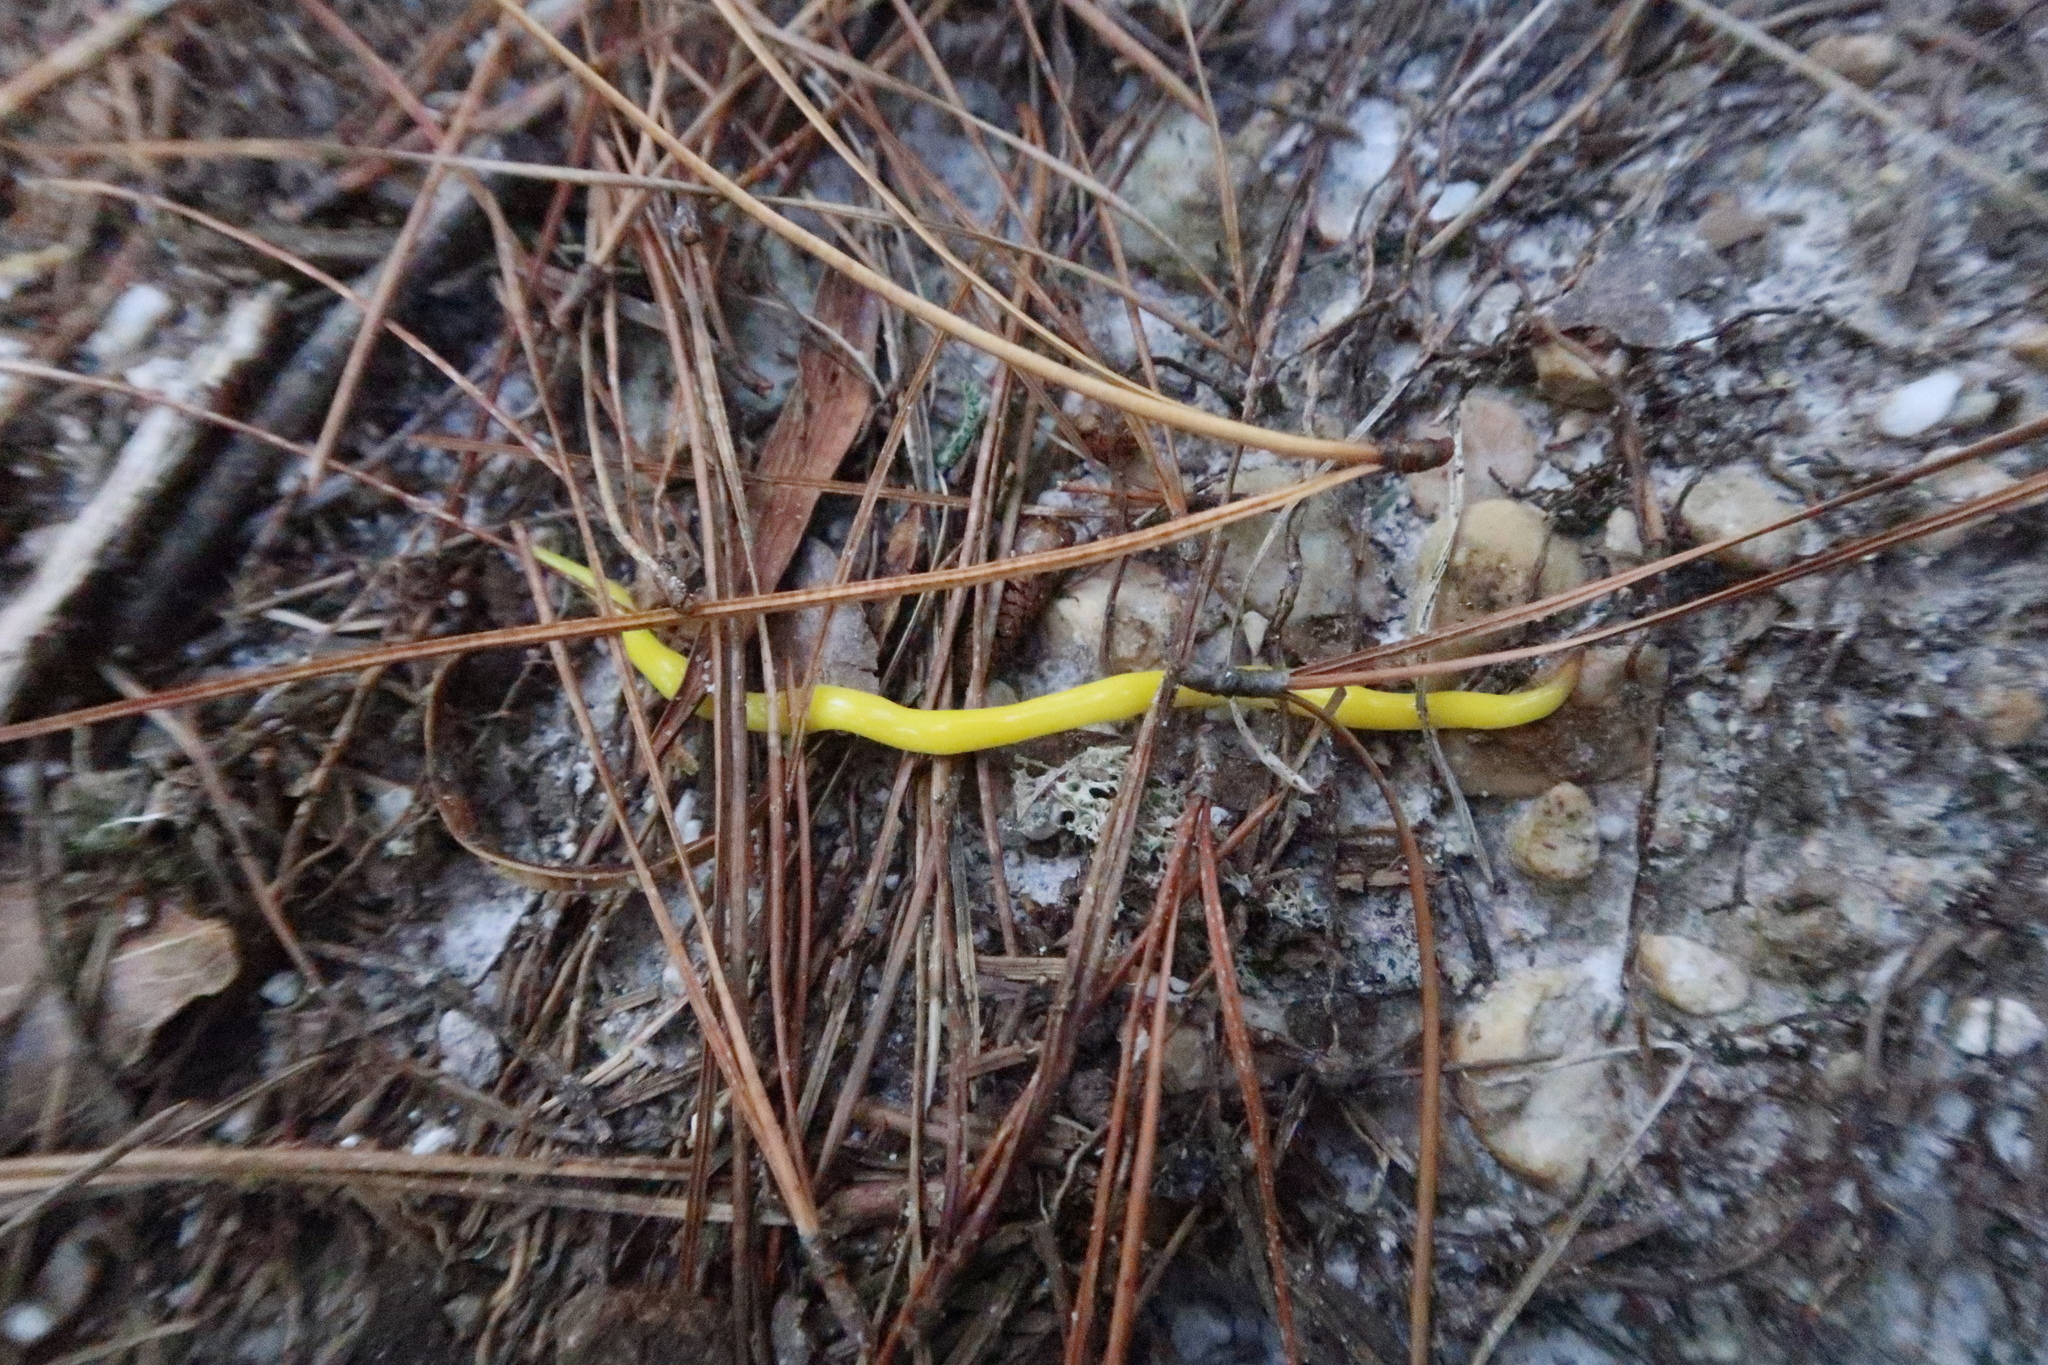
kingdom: Animalia
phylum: Platyhelminthes
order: Tricladida
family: Geoplanidae
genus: Fletchamia
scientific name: Fletchamia sugdeni
